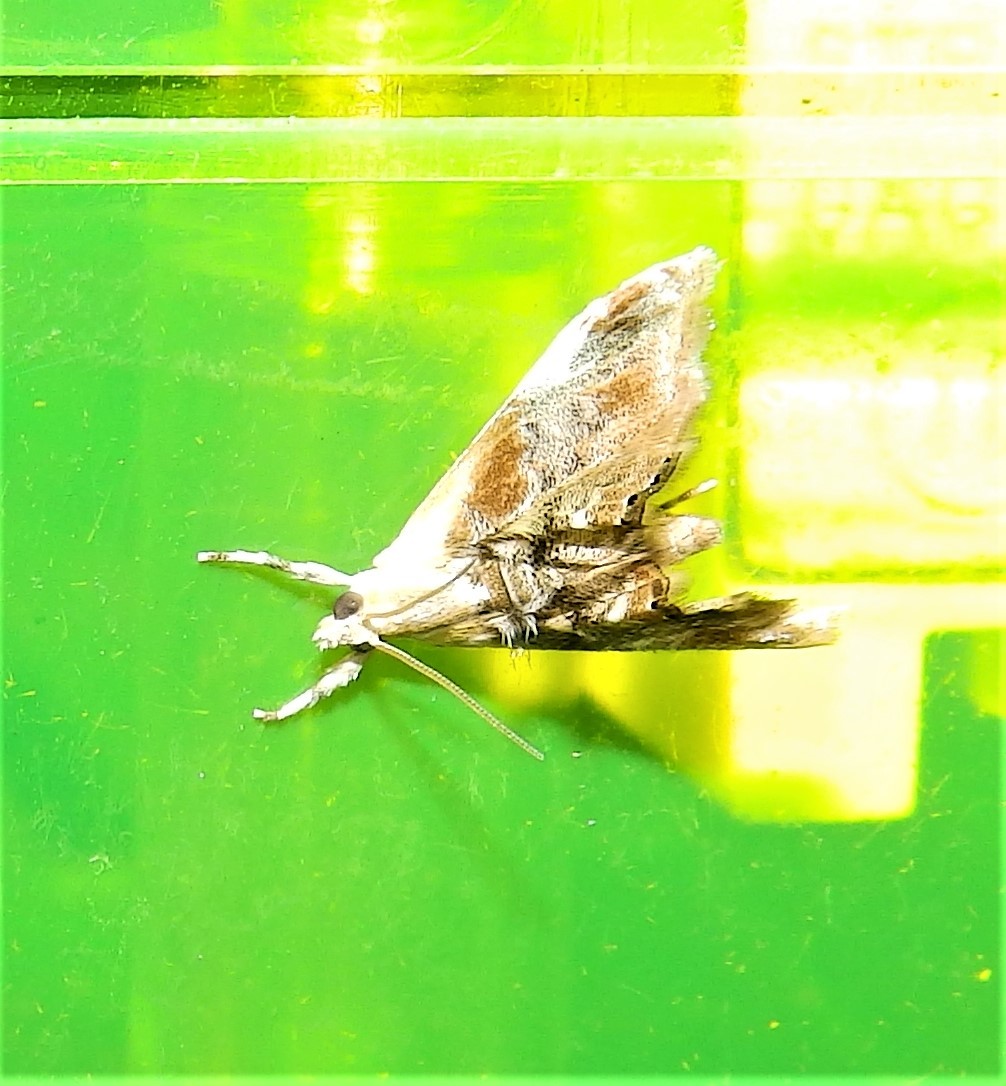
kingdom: Animalia
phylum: Arthropoda
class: Insecta
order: Lepidoptera
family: Crambidae
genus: Dicymolomia
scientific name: Dicymolomia julianalis
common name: Julia's dicymolomia moth
